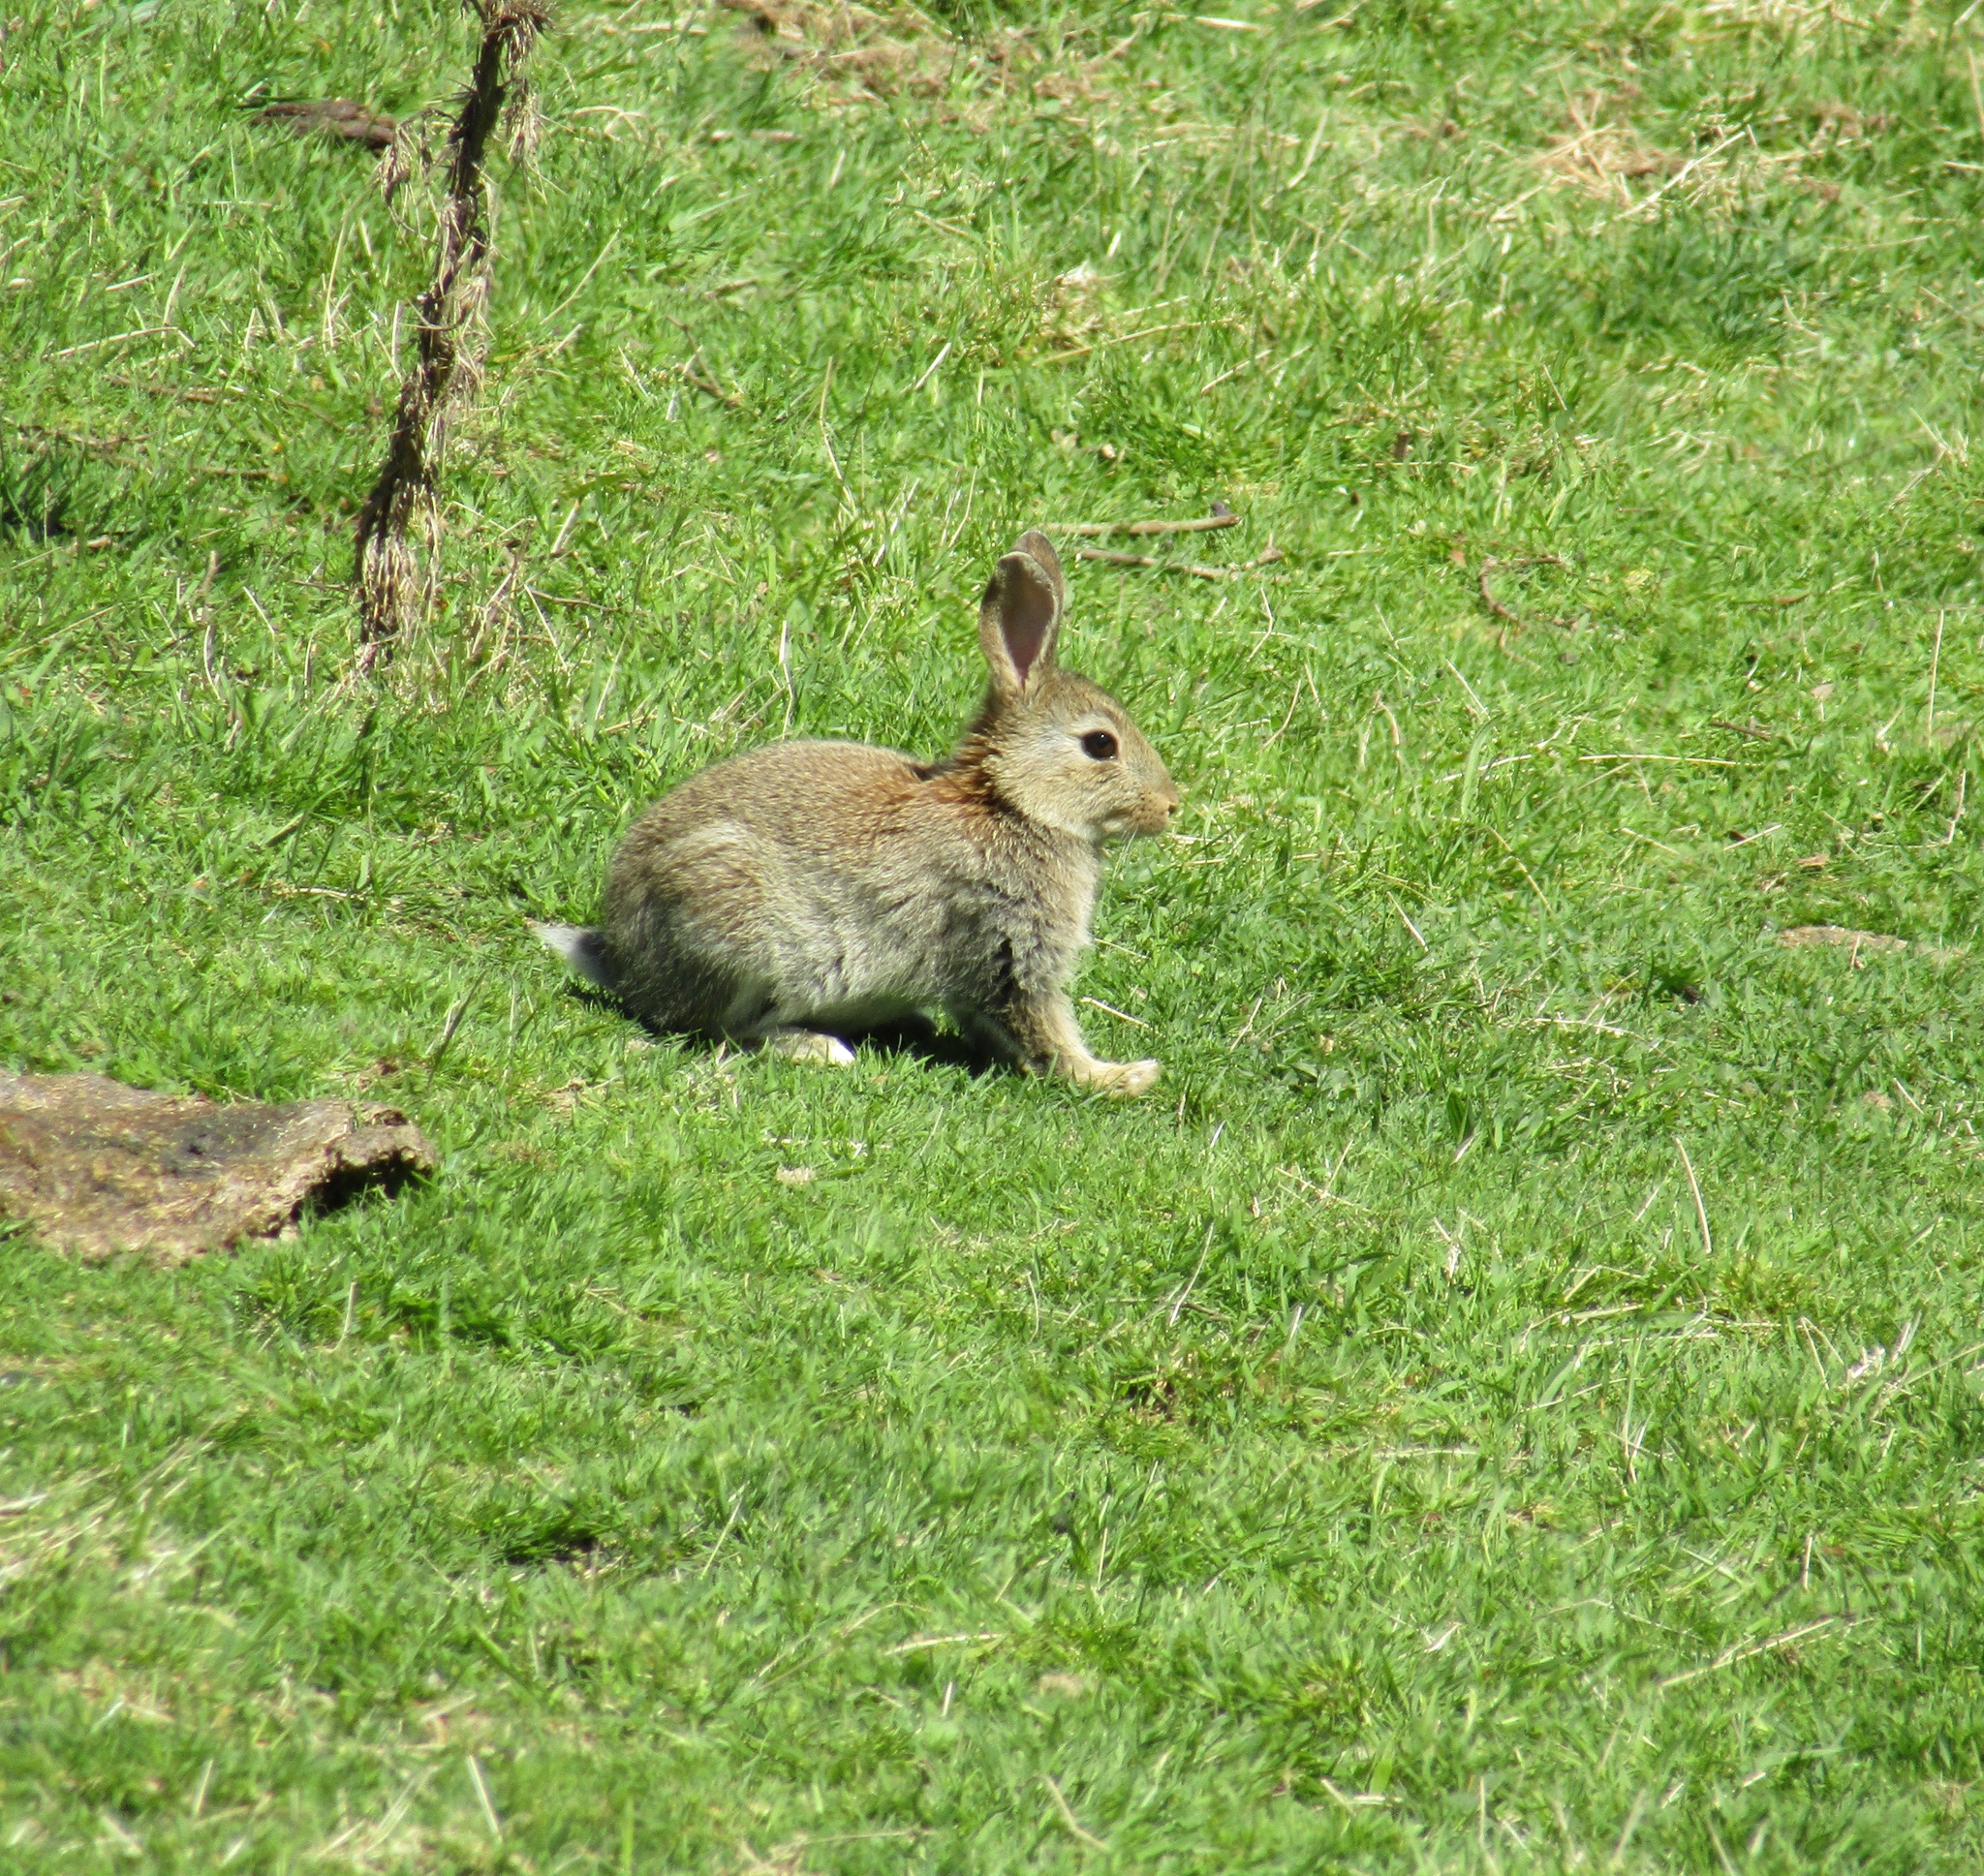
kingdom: Animalia
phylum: Chordata
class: Mammalia
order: Lagomorpha
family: Leporidae
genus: Oryctolagus
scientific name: Oryctolagus cuniculus
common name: European rabbit
